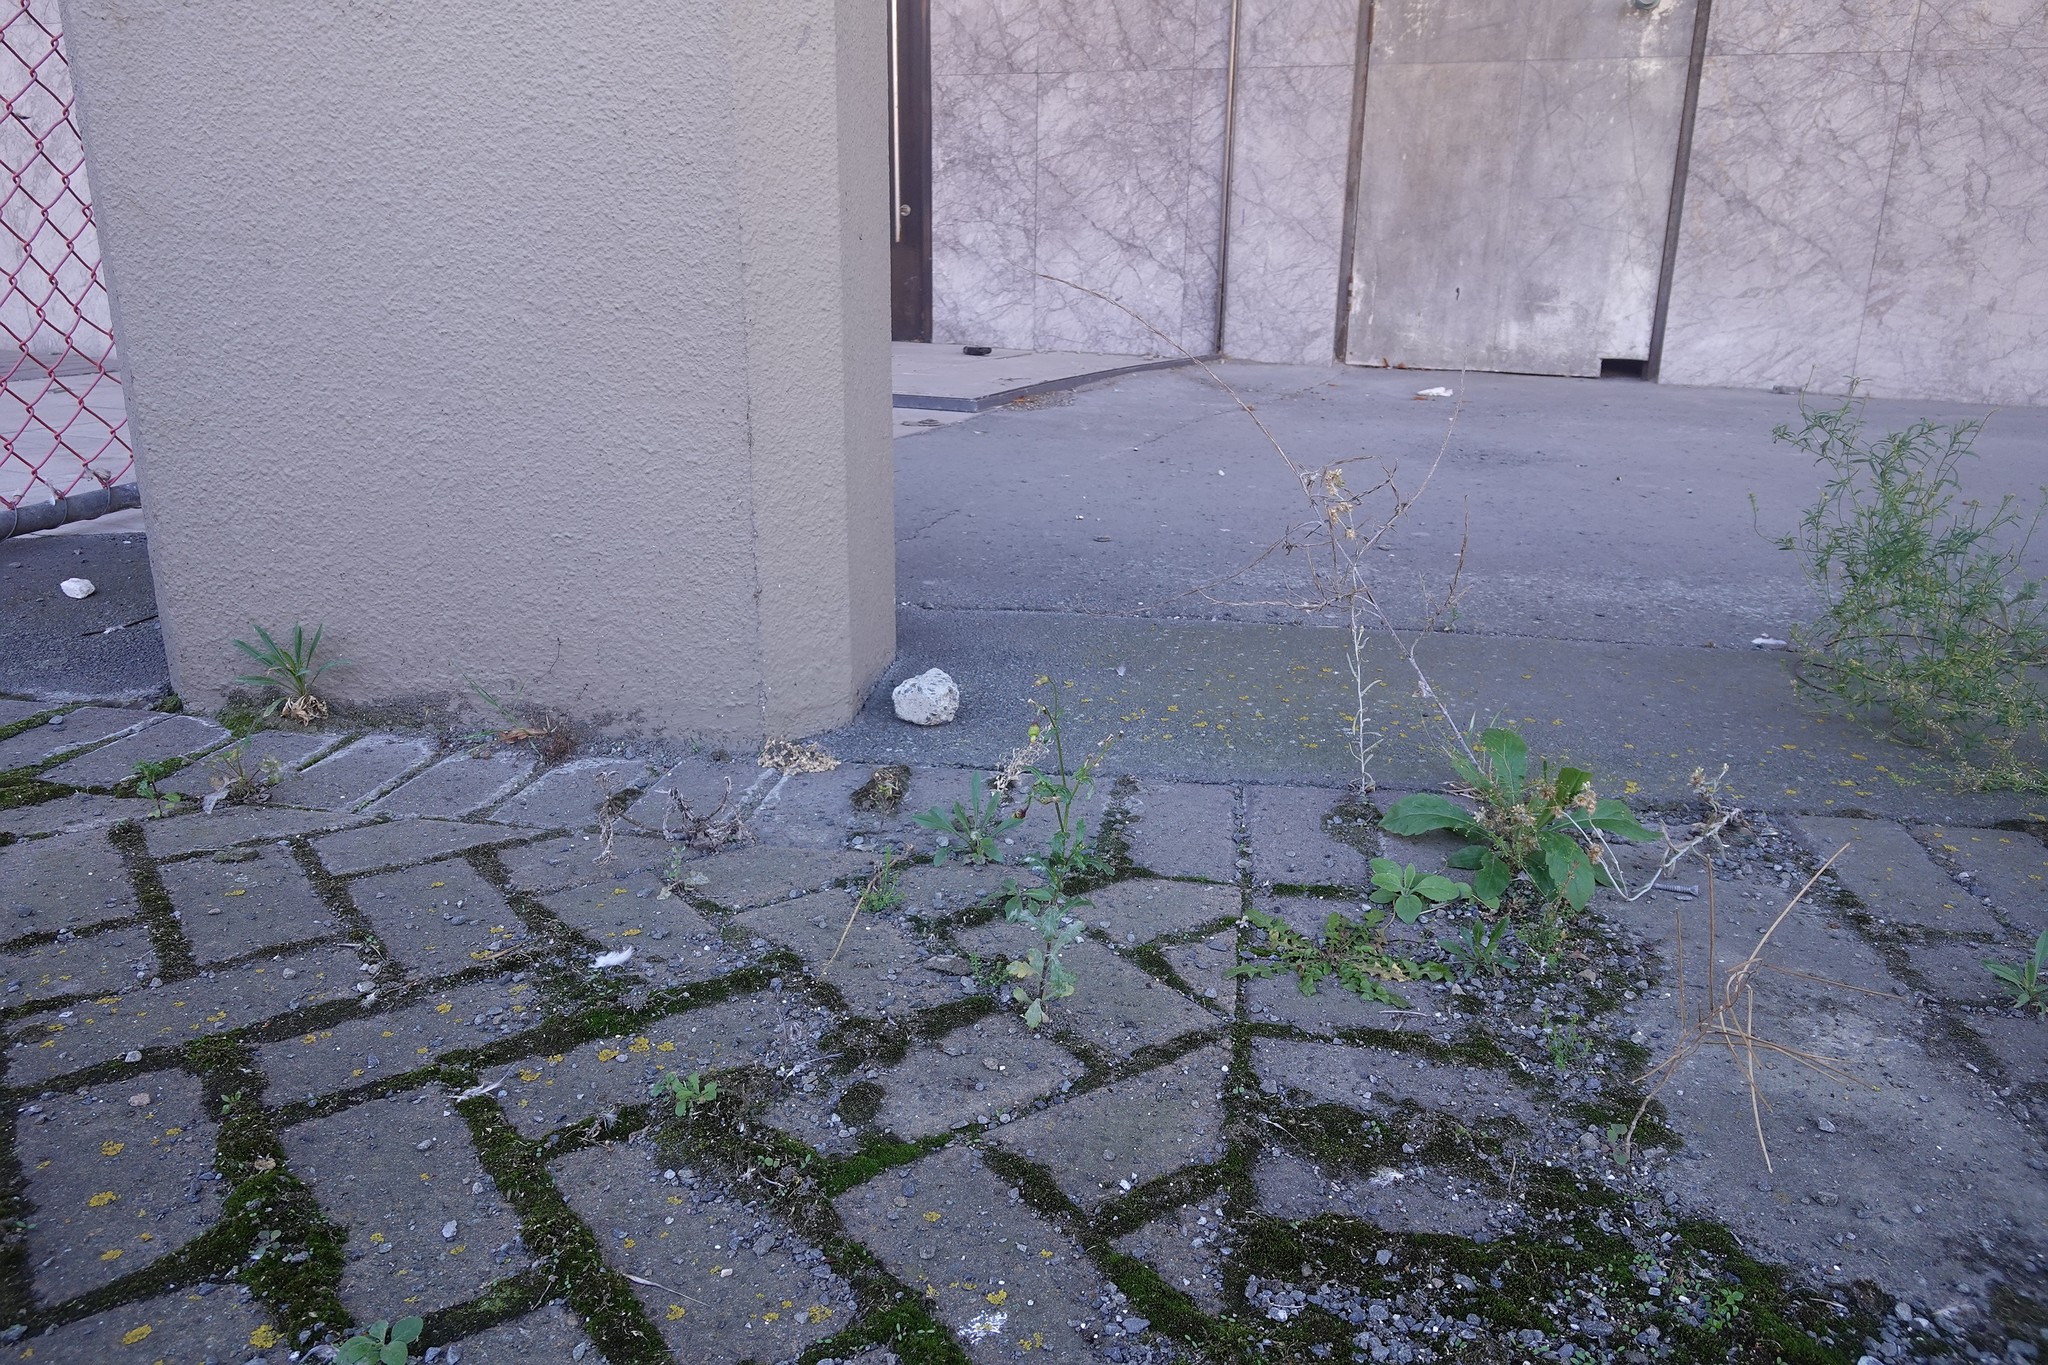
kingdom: Plantae
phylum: Tracheophyta
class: Magnoliopsida
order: Asterales
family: Asteraceae
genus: Senecio
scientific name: Senecio vulgaris
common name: Old-man-in-the-spring
